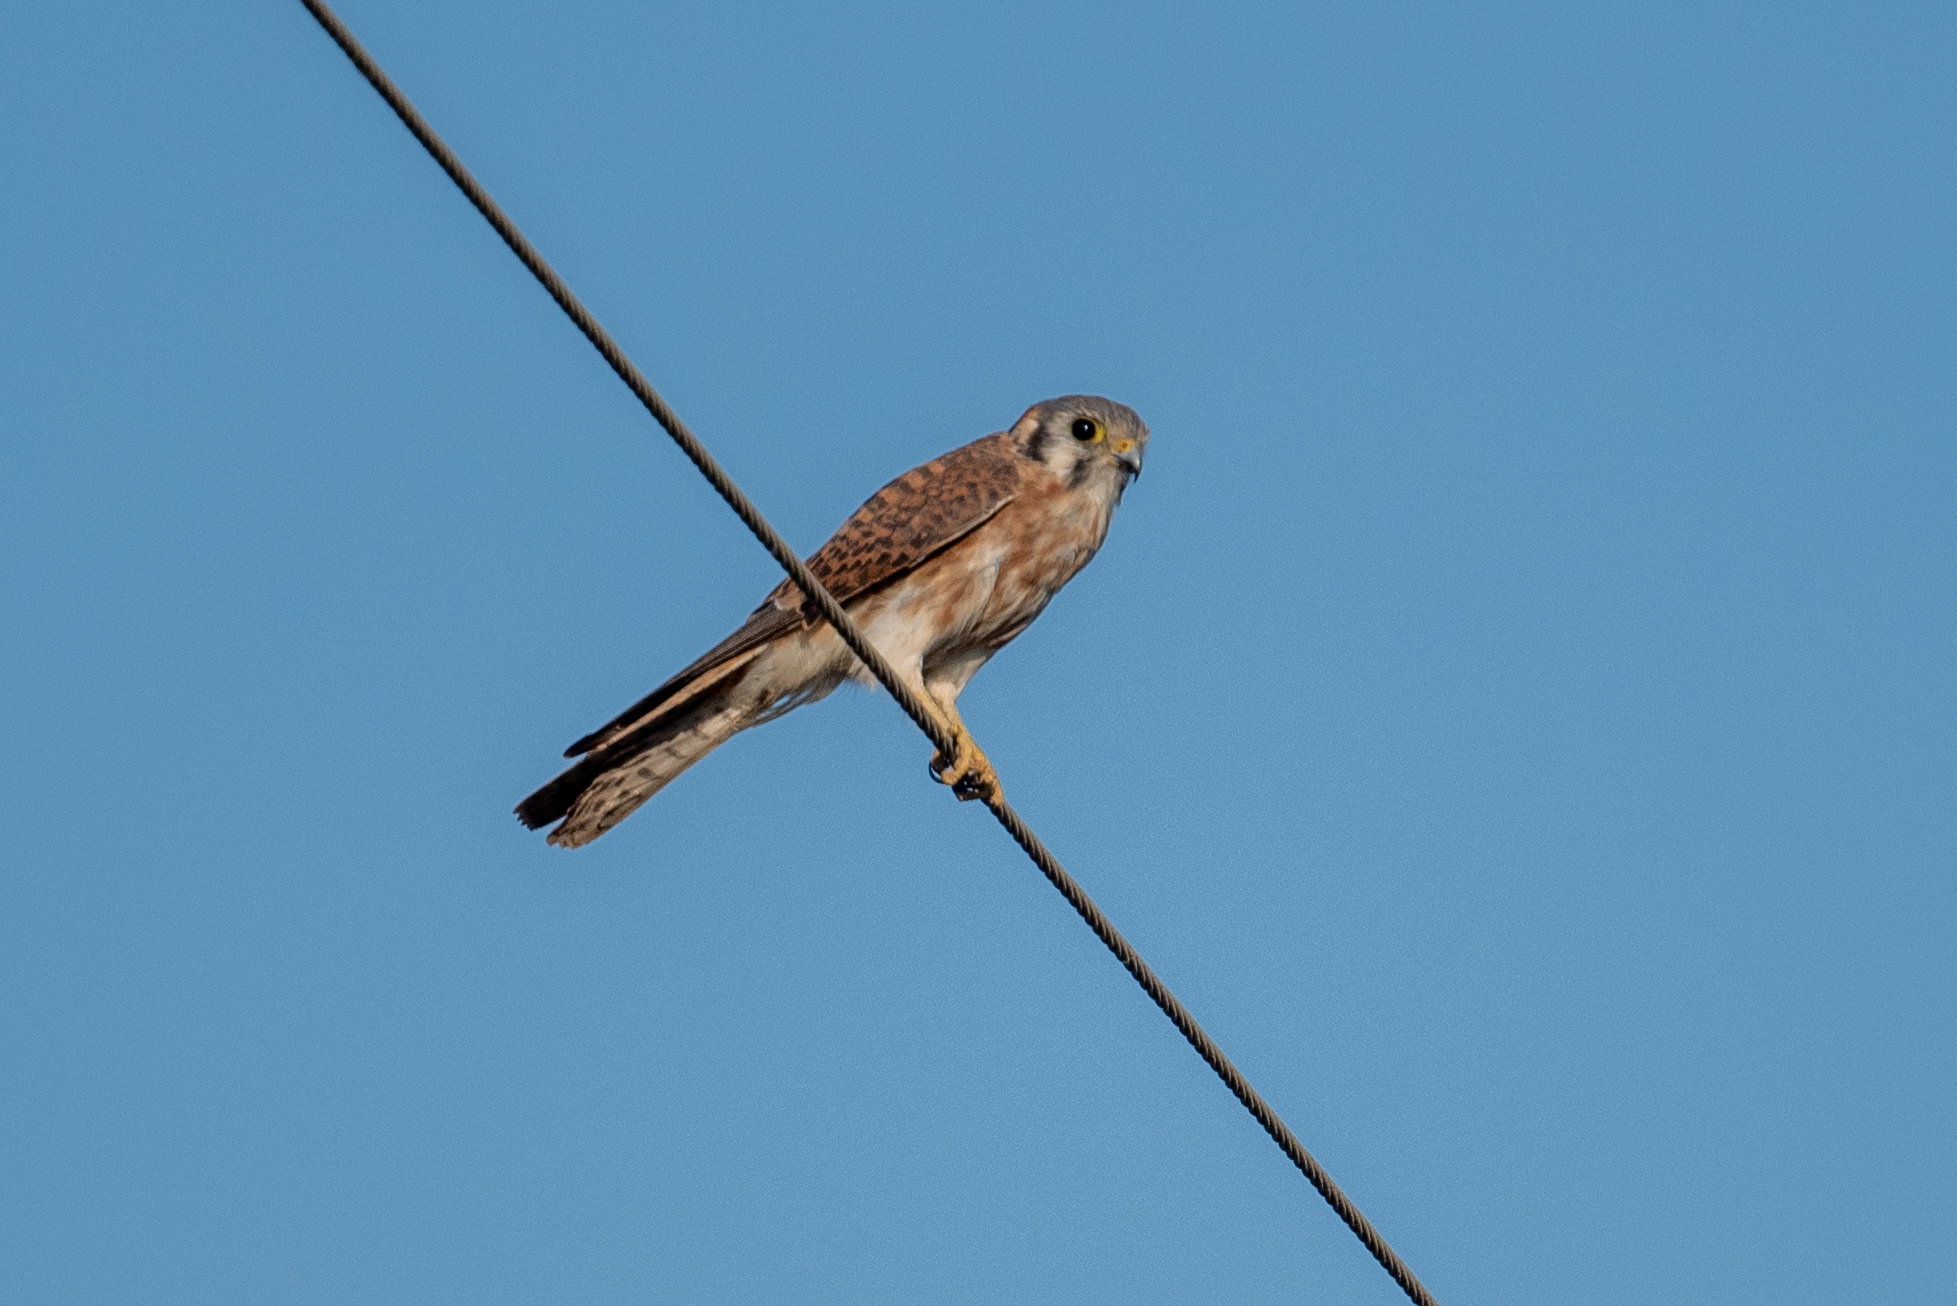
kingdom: Animalia
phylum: Chordata
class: Aves
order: Falconiformes
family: Falconidae
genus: Falco
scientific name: Falco sparverius
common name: American kestrel
